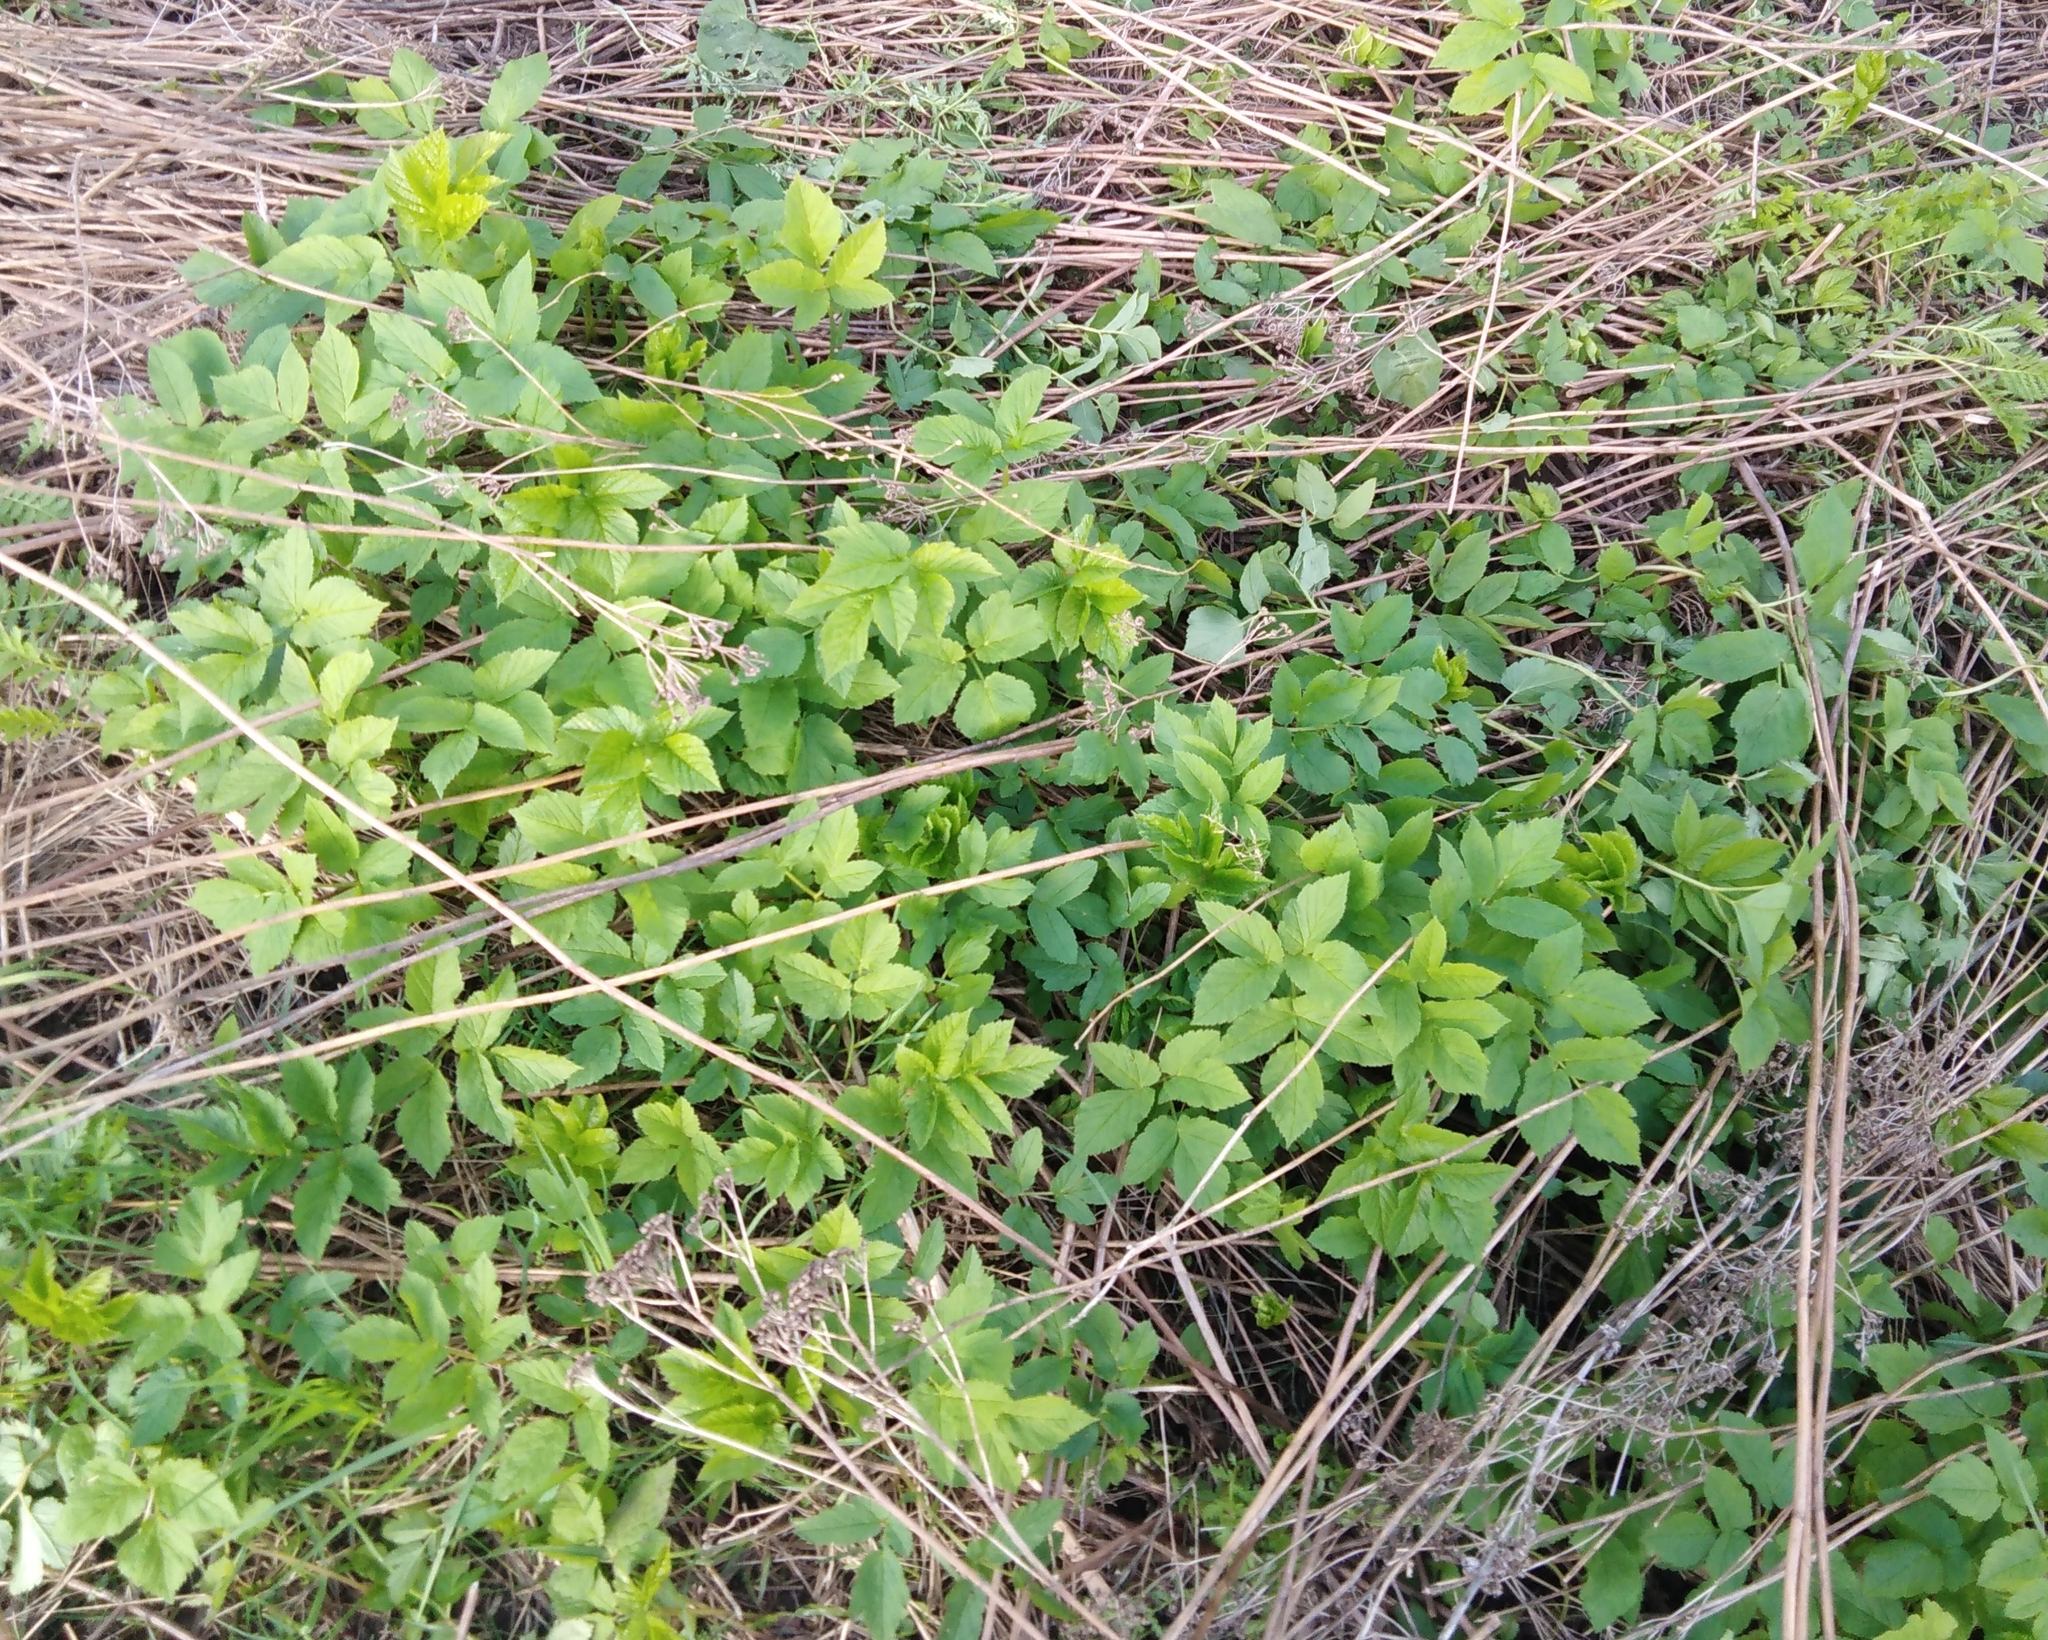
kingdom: Plantae
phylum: Tracheophyta
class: Magnoliopsida
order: Apiales
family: Apiaceae
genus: Aegopodium
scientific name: Aegopodium podagraria
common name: Ground-elder
